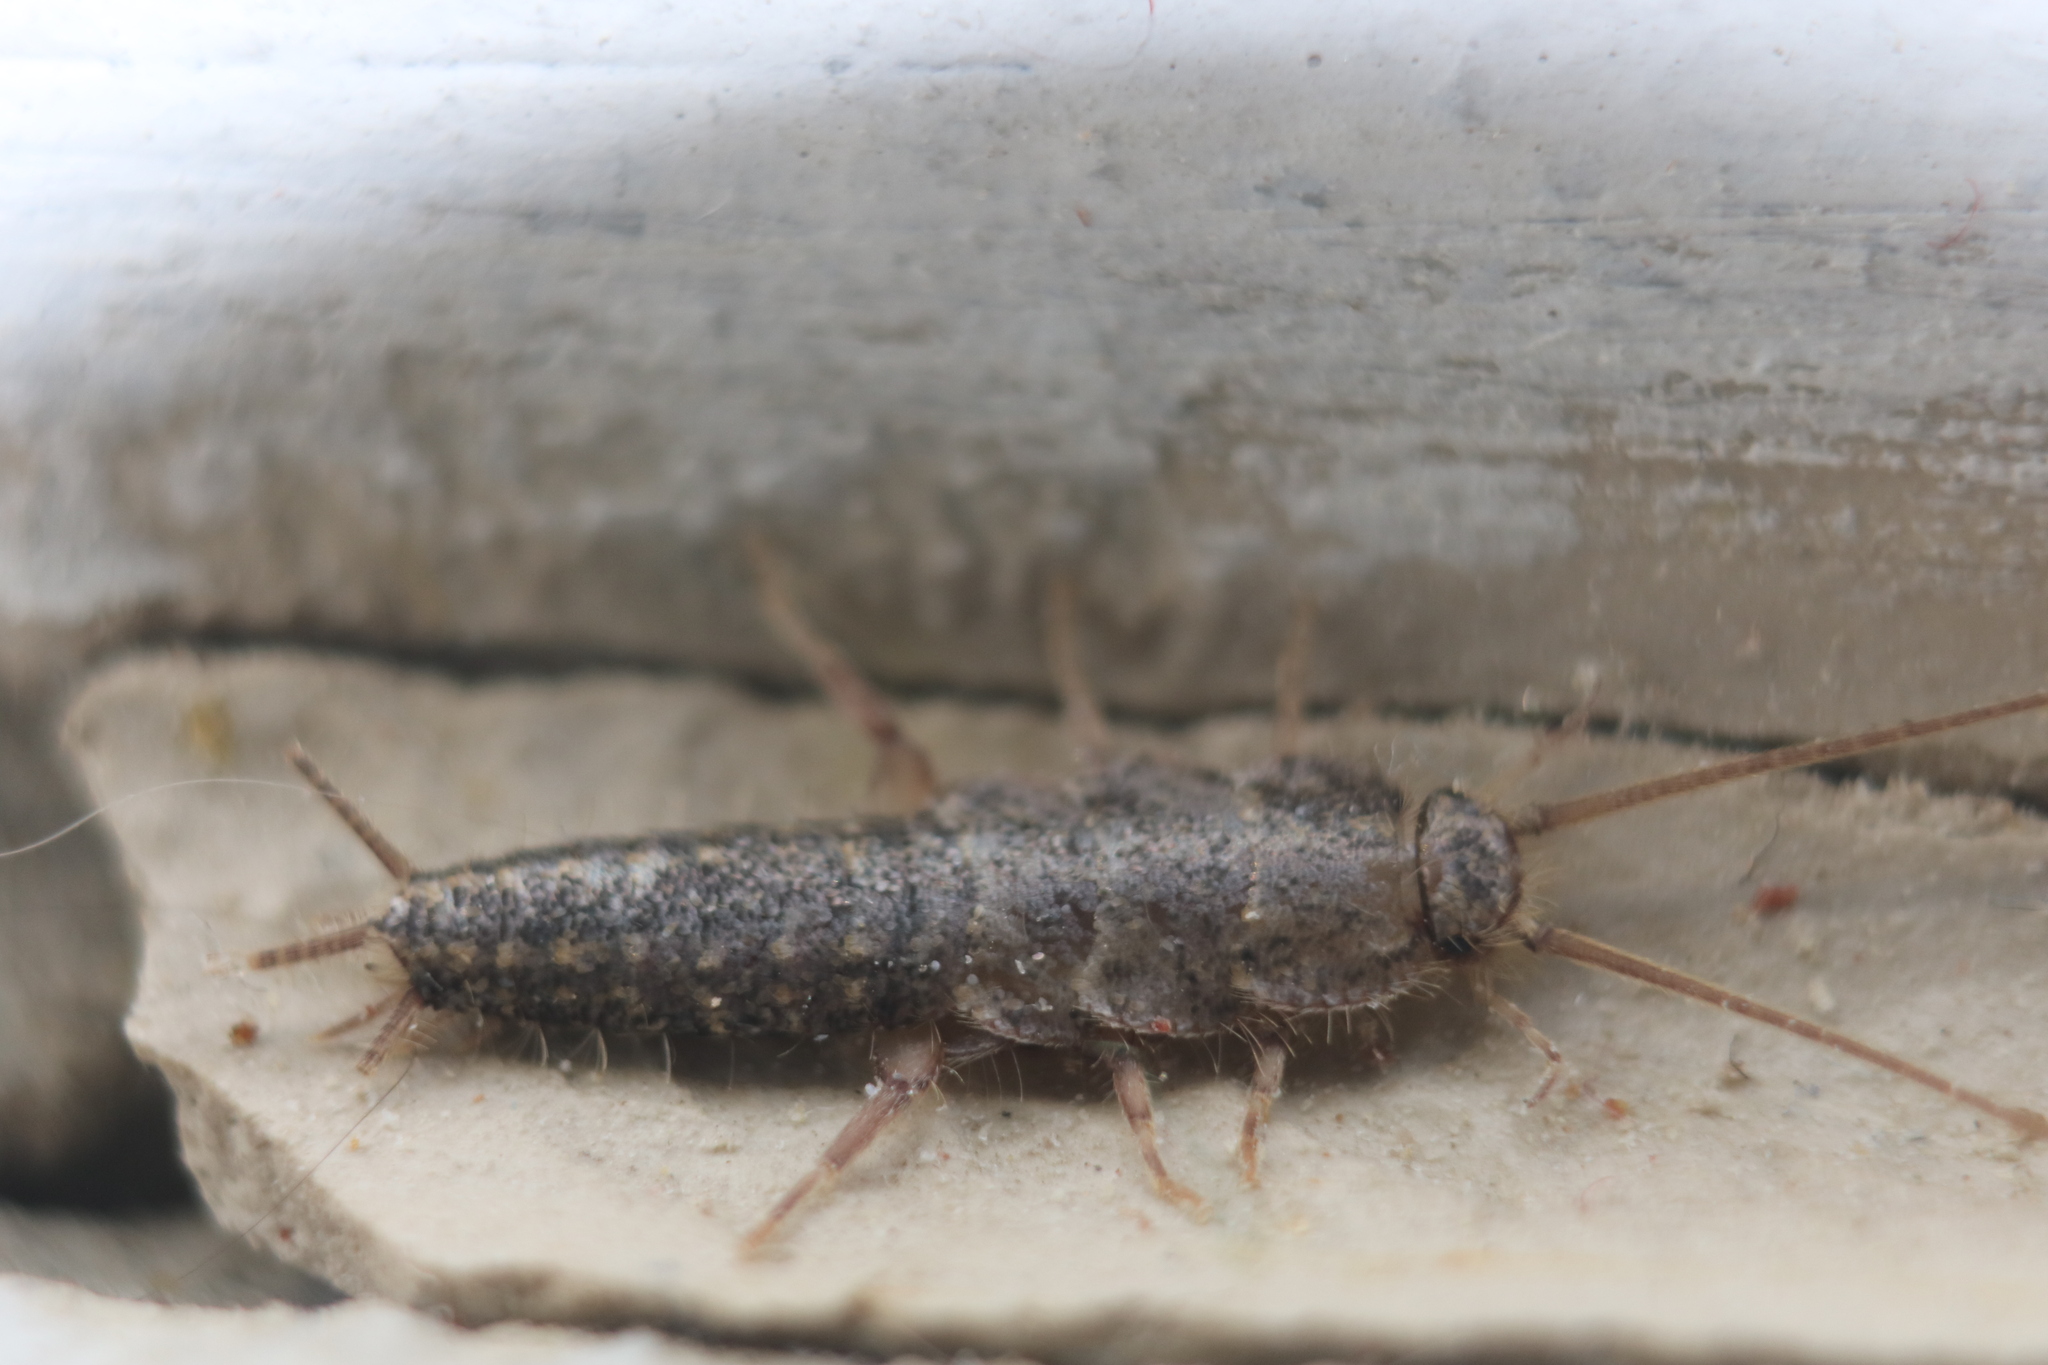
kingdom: Animalia
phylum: Arthropoda
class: Insecta
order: Zygentoma
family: Lepismatidae
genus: Ctenolepisma
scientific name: Ctenolepisma lineata
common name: Four-lined silverfish
